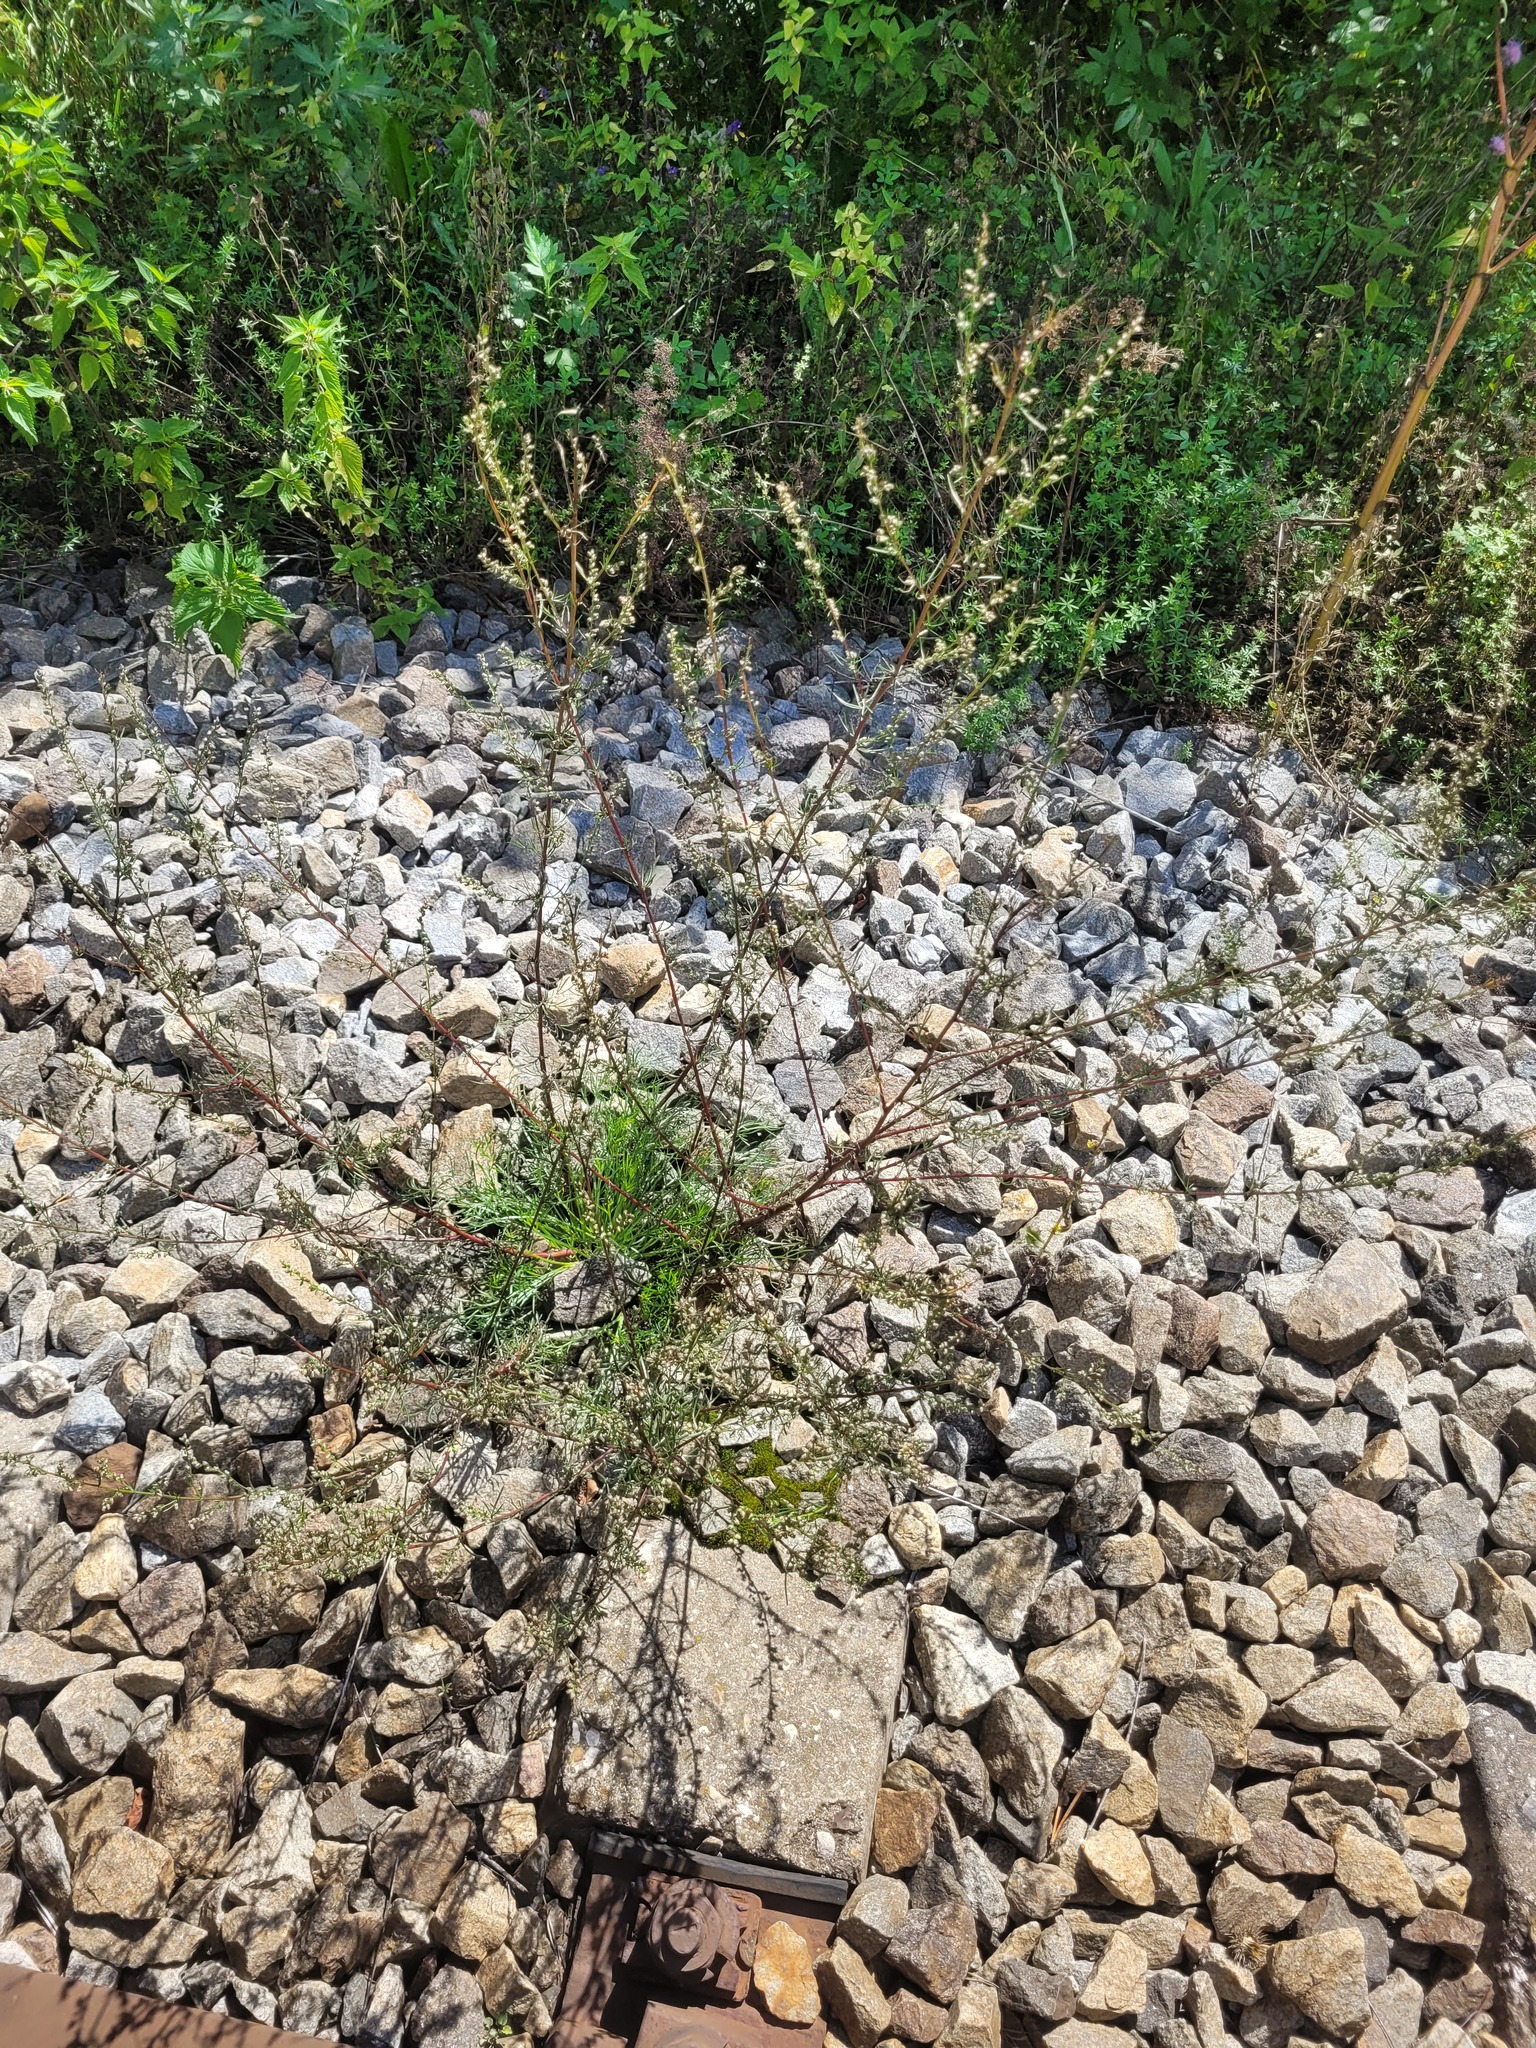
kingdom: Plantae
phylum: Tracheophyta
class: Magnoliopsida
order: Asterales
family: Asteraceae
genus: Artemisia
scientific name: Artemisia campestris
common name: Field wormwood
